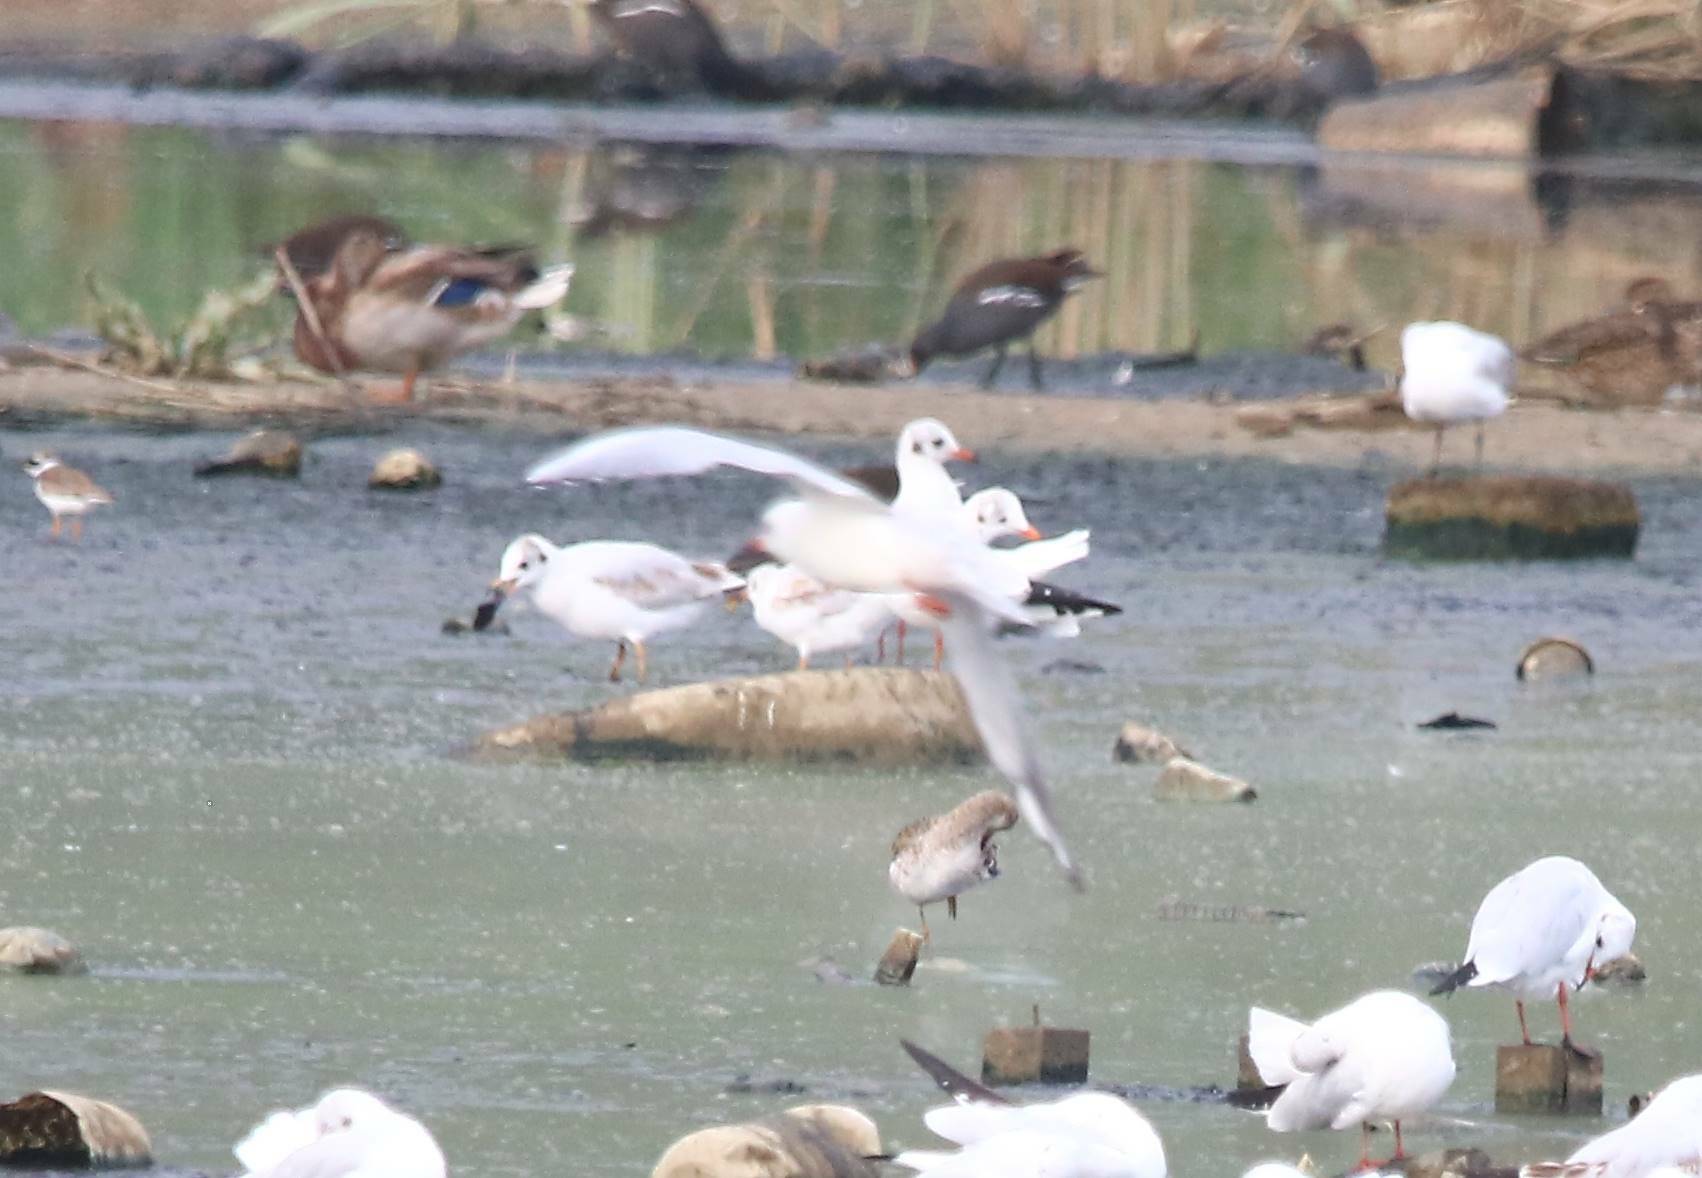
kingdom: Animalia
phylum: Chordata
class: Aves
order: Charadriiformes
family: Laridae
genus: Chroicocephalus
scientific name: Chroicocephalus ridibundus
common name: Black-headed gull
